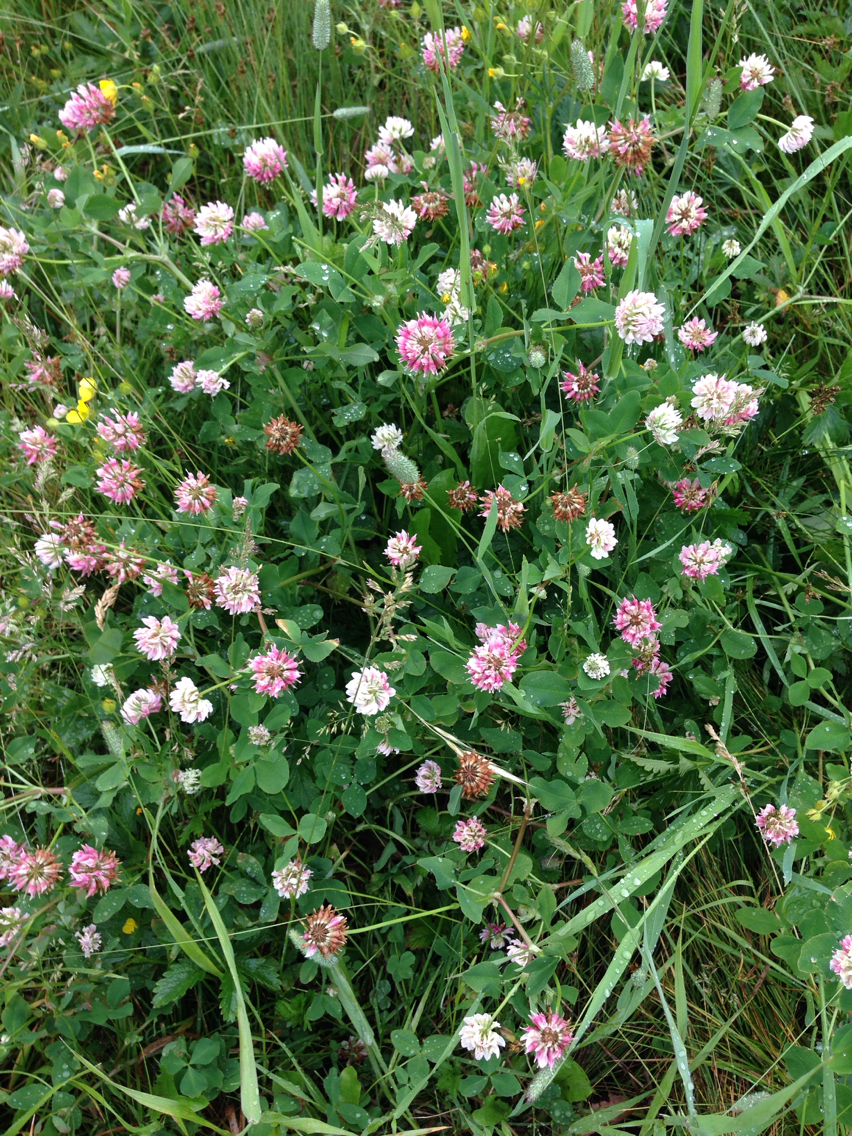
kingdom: Plantae
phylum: Tracheophyta
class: Magnoliopsida
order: Fabales
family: Fabaceae
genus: Trifolium
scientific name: Trifolium hybridum
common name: Alsike clover
